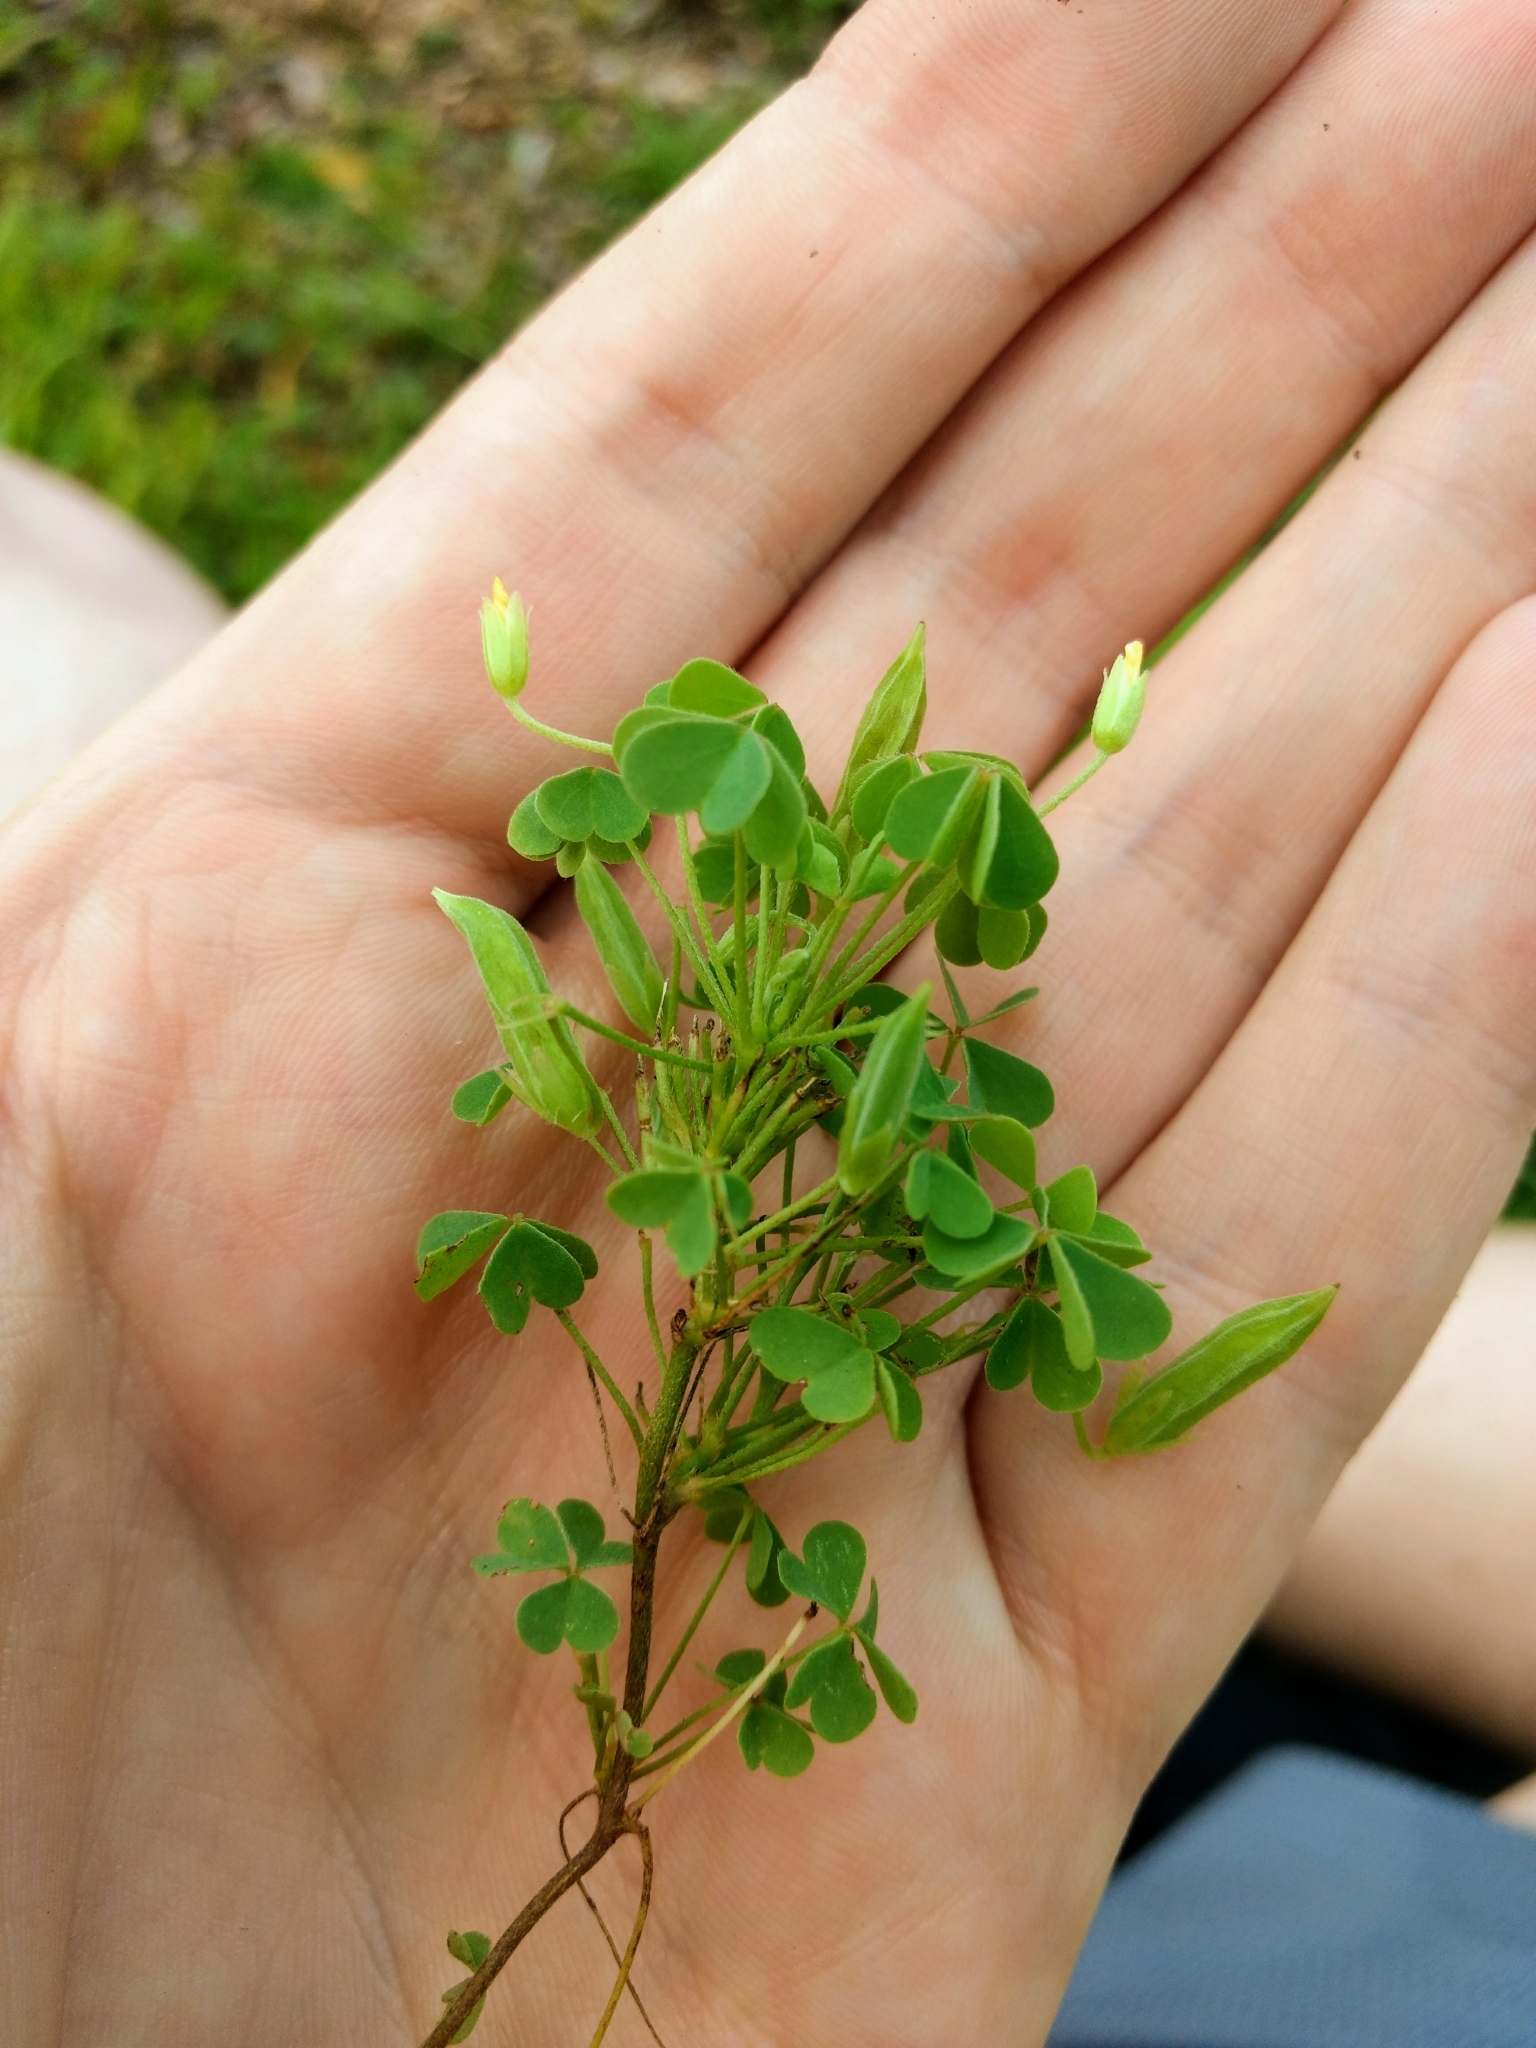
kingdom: Plantae
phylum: Tracheophyta
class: Magnoliopsida
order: Oxalidales
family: Oxalidaceae
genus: Oxalis
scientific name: Oxalis dillenii
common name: Sussex yellow-sorrel
